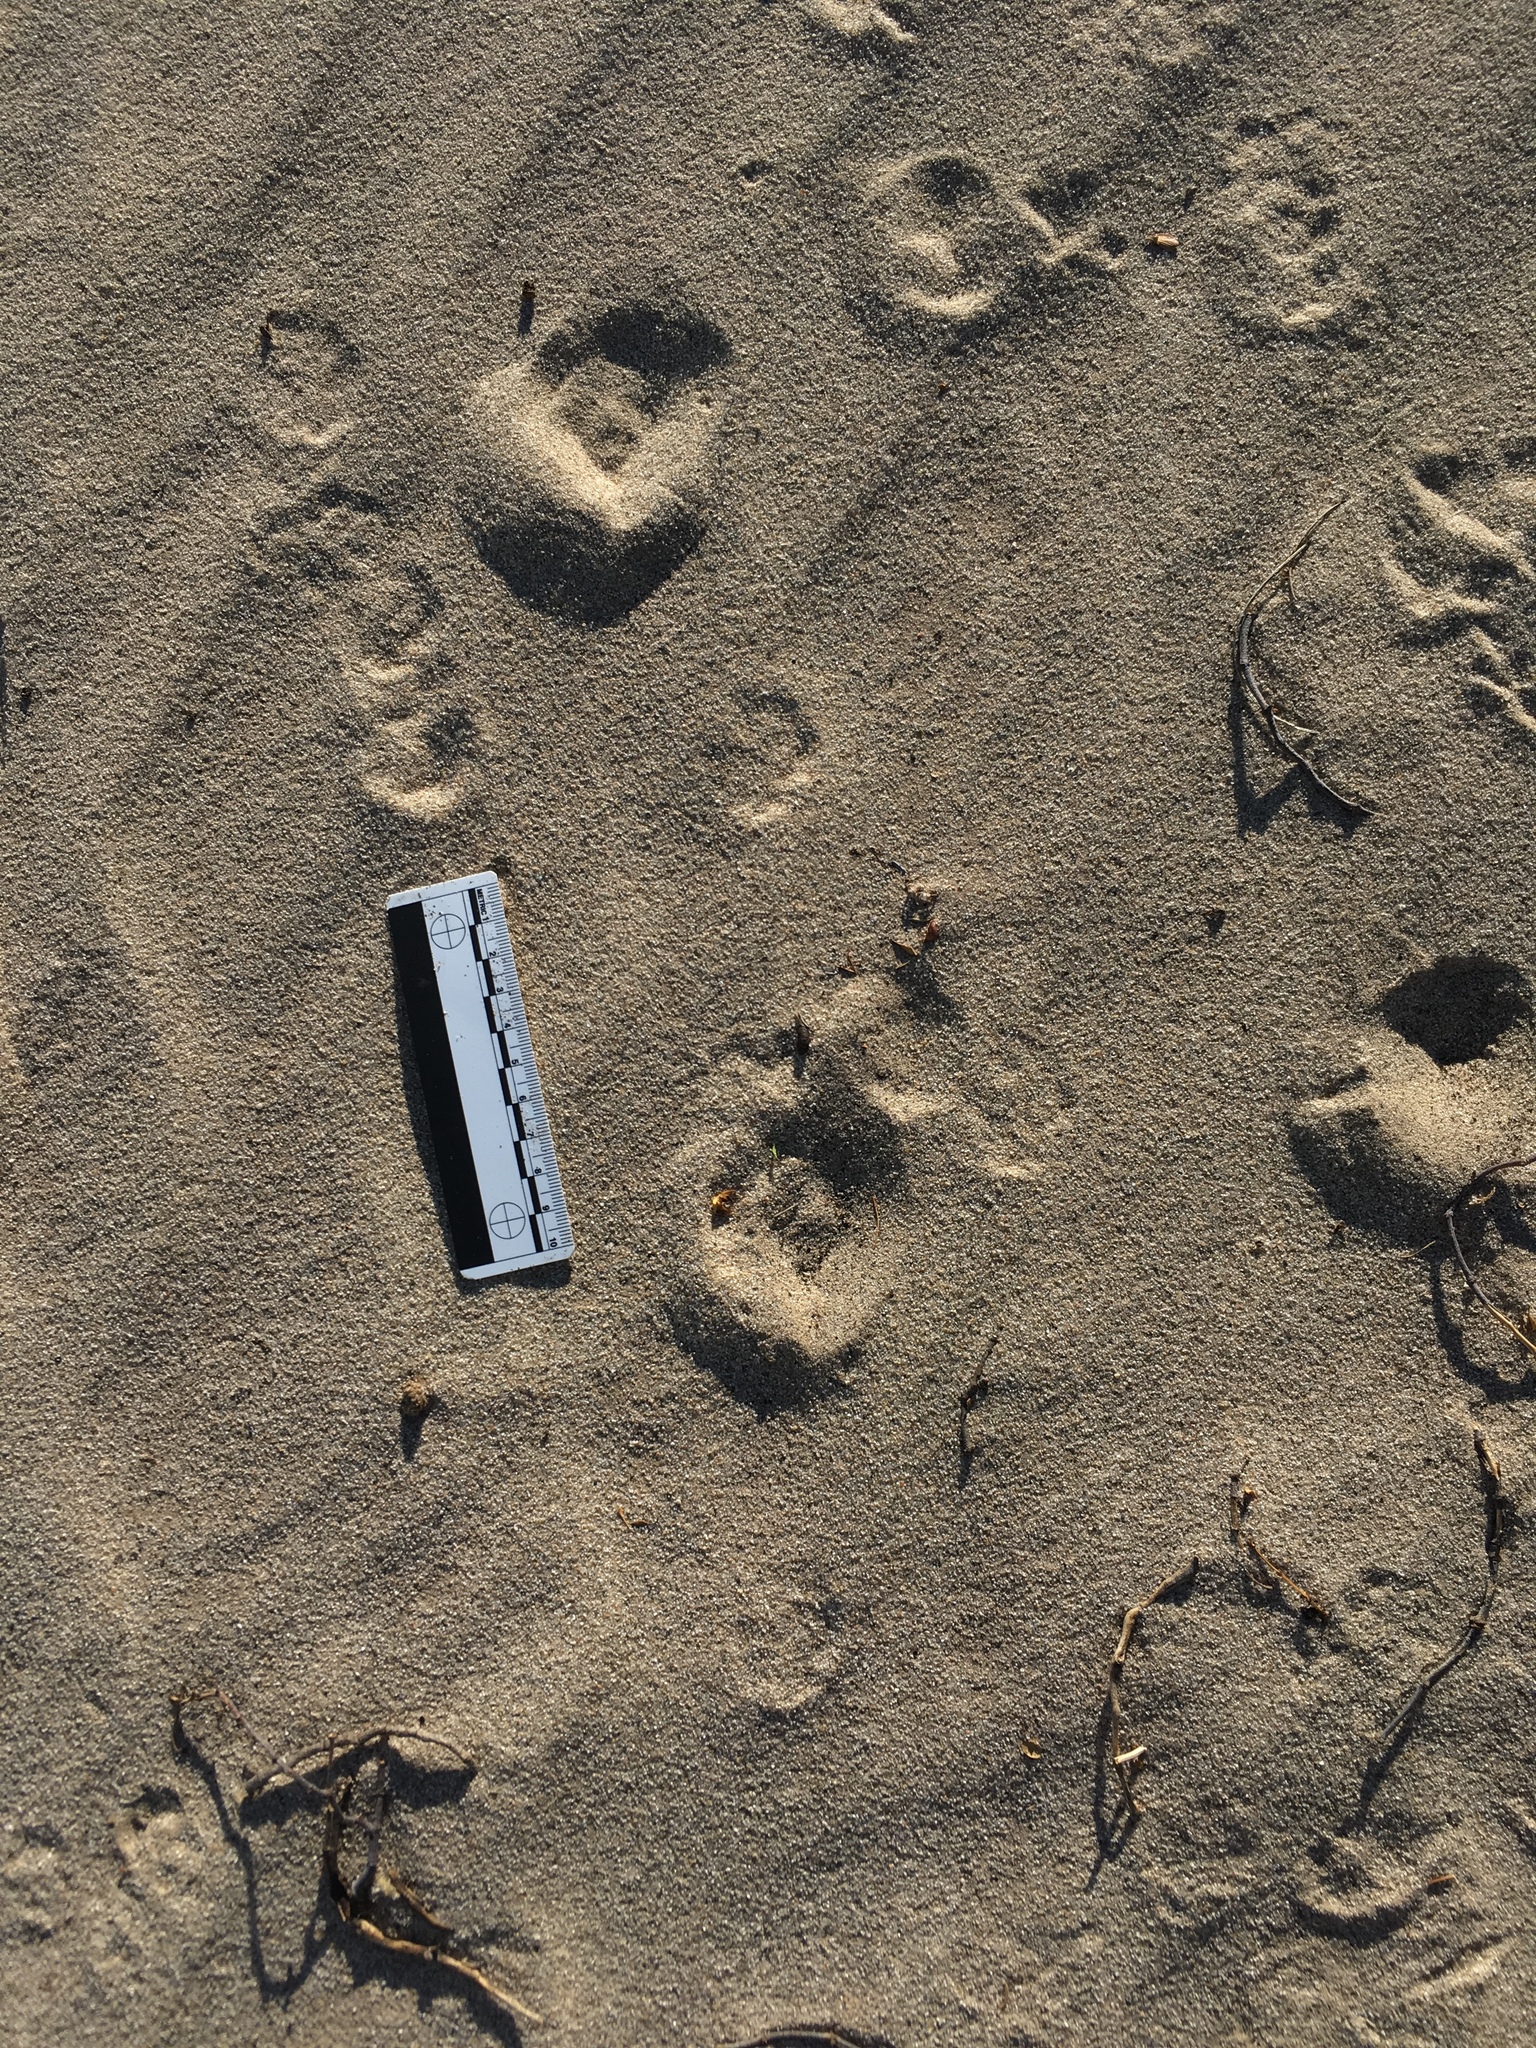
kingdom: Animalia
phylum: Chordata
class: Mammalia
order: Carnivora
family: Canidae
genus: Vulpes
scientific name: Vulpes macrotis
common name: Kit fox
